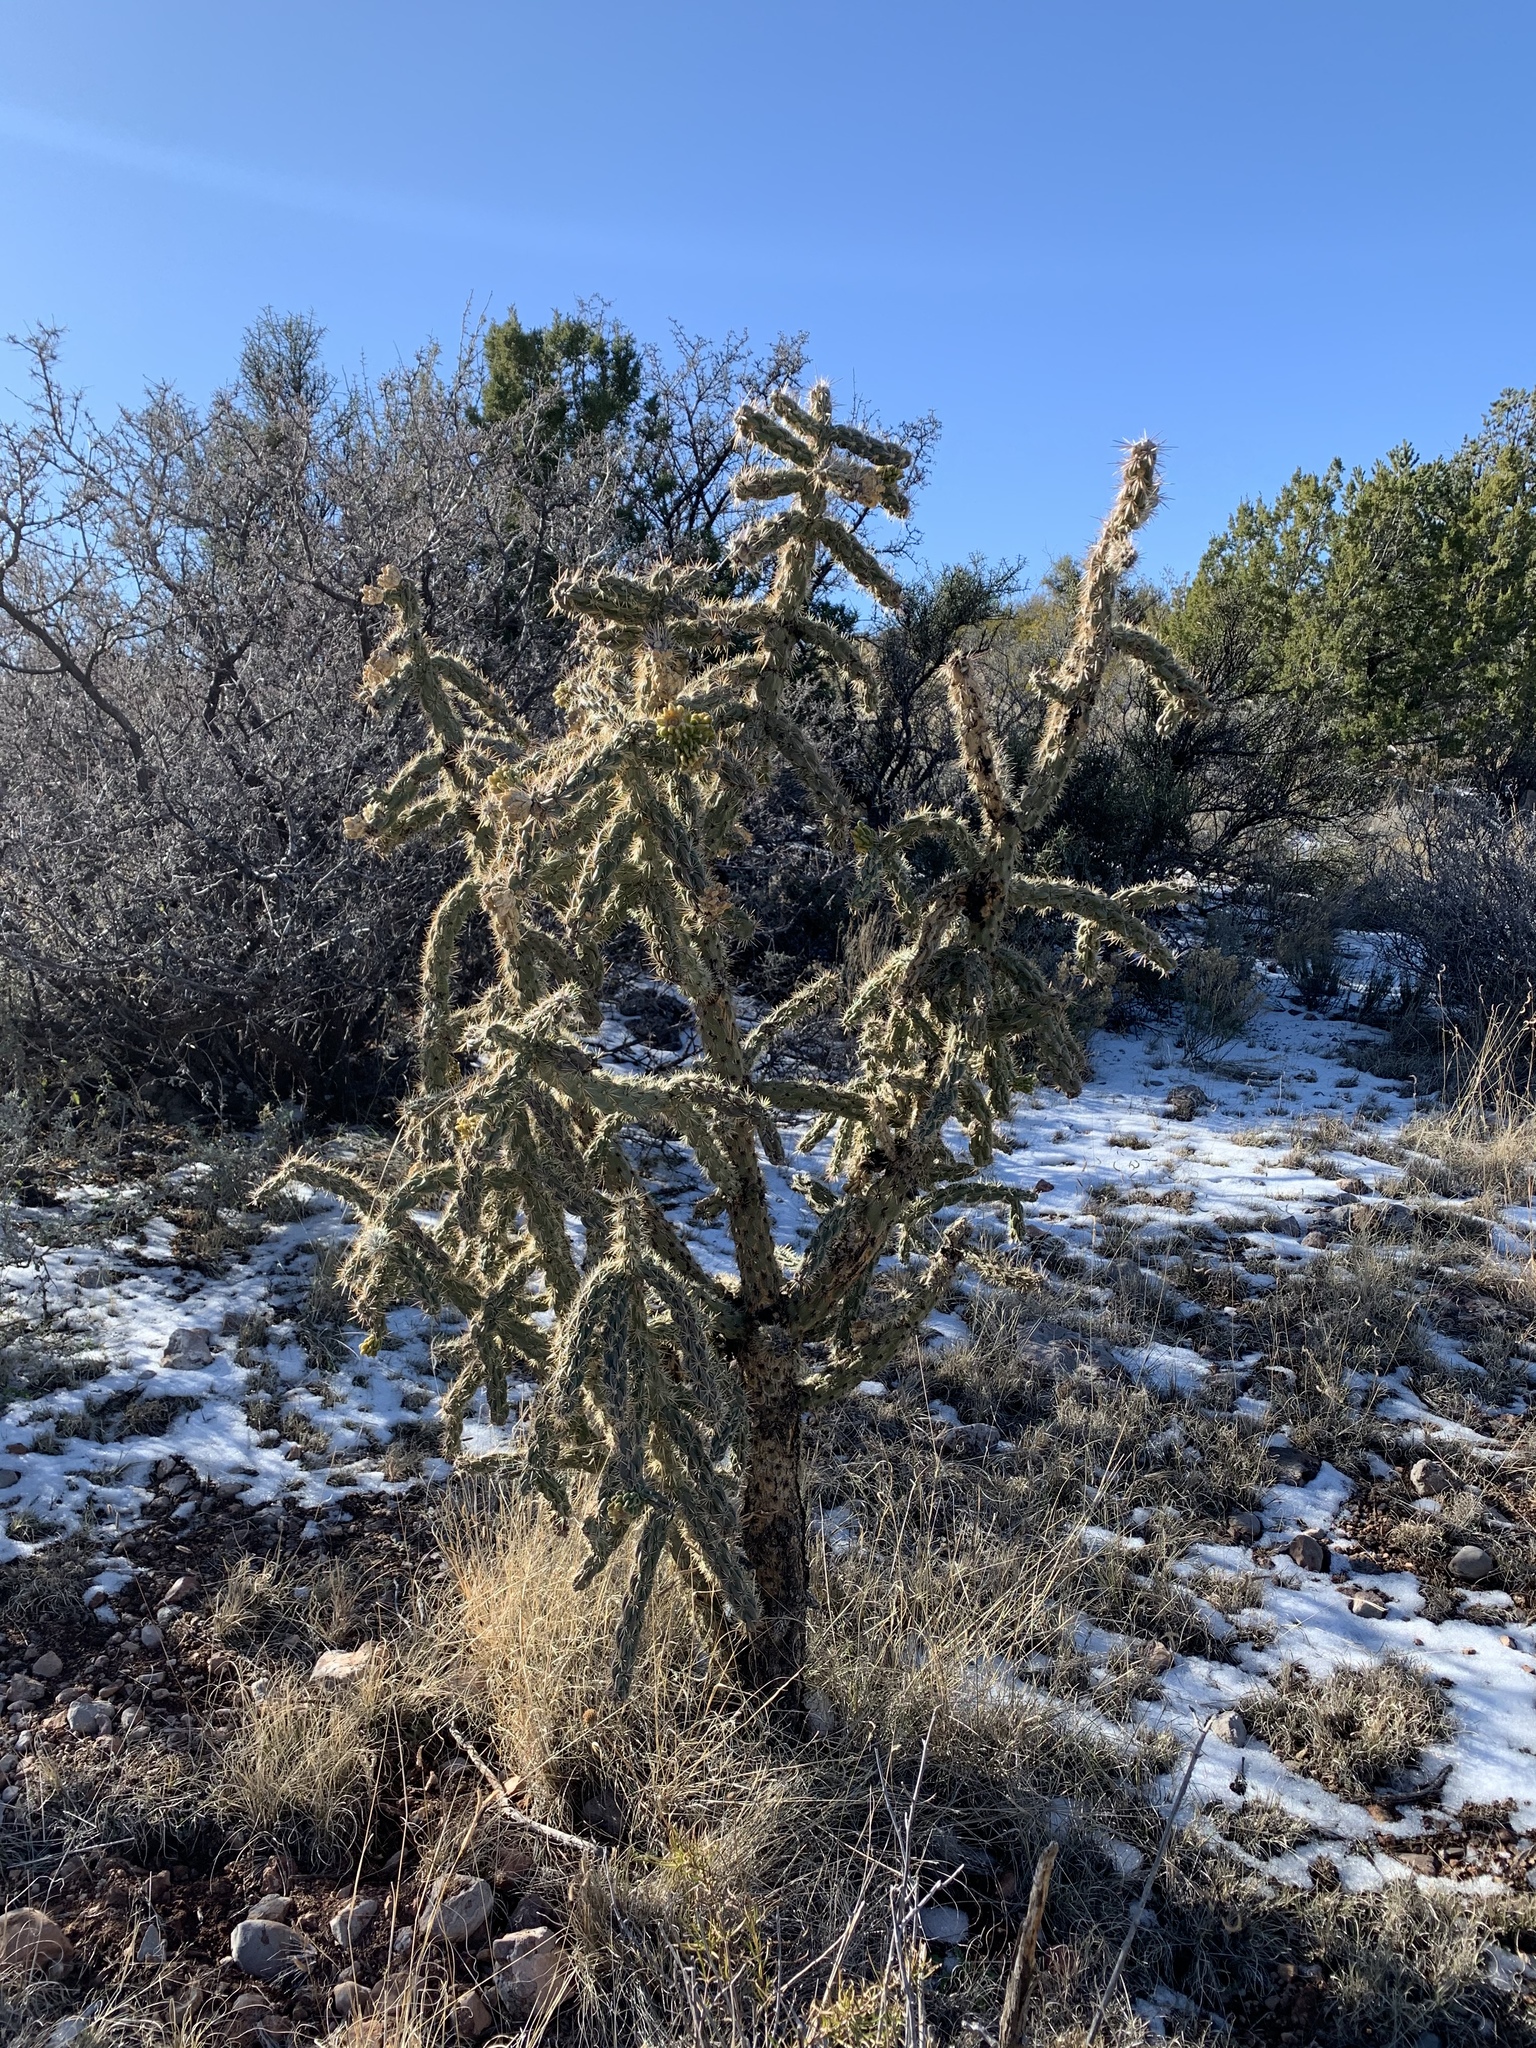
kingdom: Plantae
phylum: Tracheophyta
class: Magnoliopsida
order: Caryophyllales
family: Cactaceae
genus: Cylindropuntia
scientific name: Cylindropuntia imbricata
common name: Candelabrum cactus
